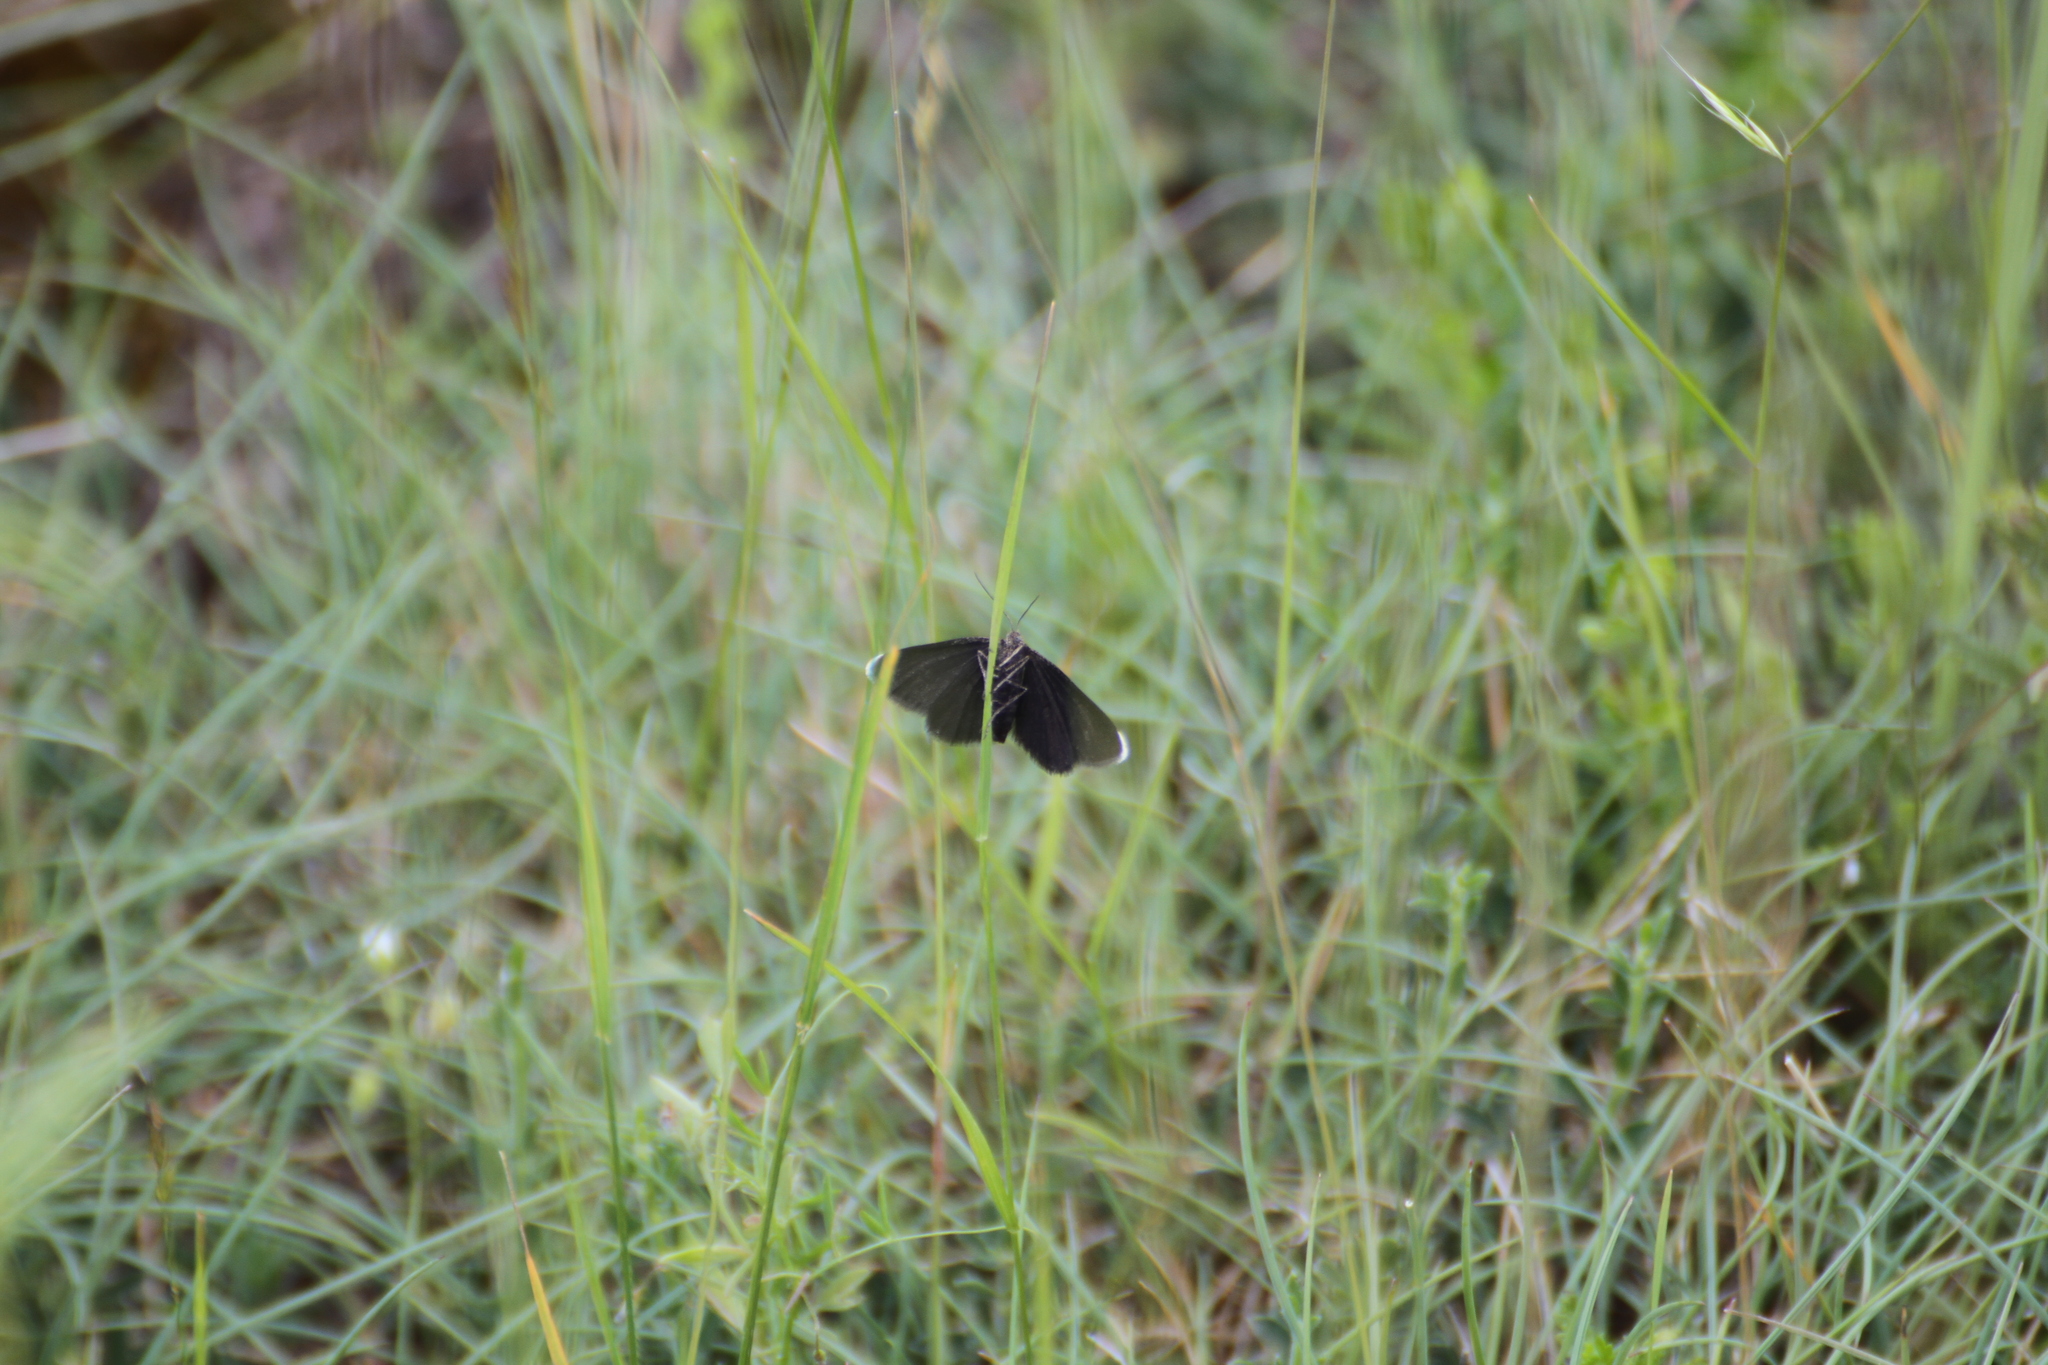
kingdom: Animalia
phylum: Arthropoda
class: Insecta
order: Lepidoptera
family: Geometridae
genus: Odezia
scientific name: Odezia atrata
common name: Chimney sweeper
